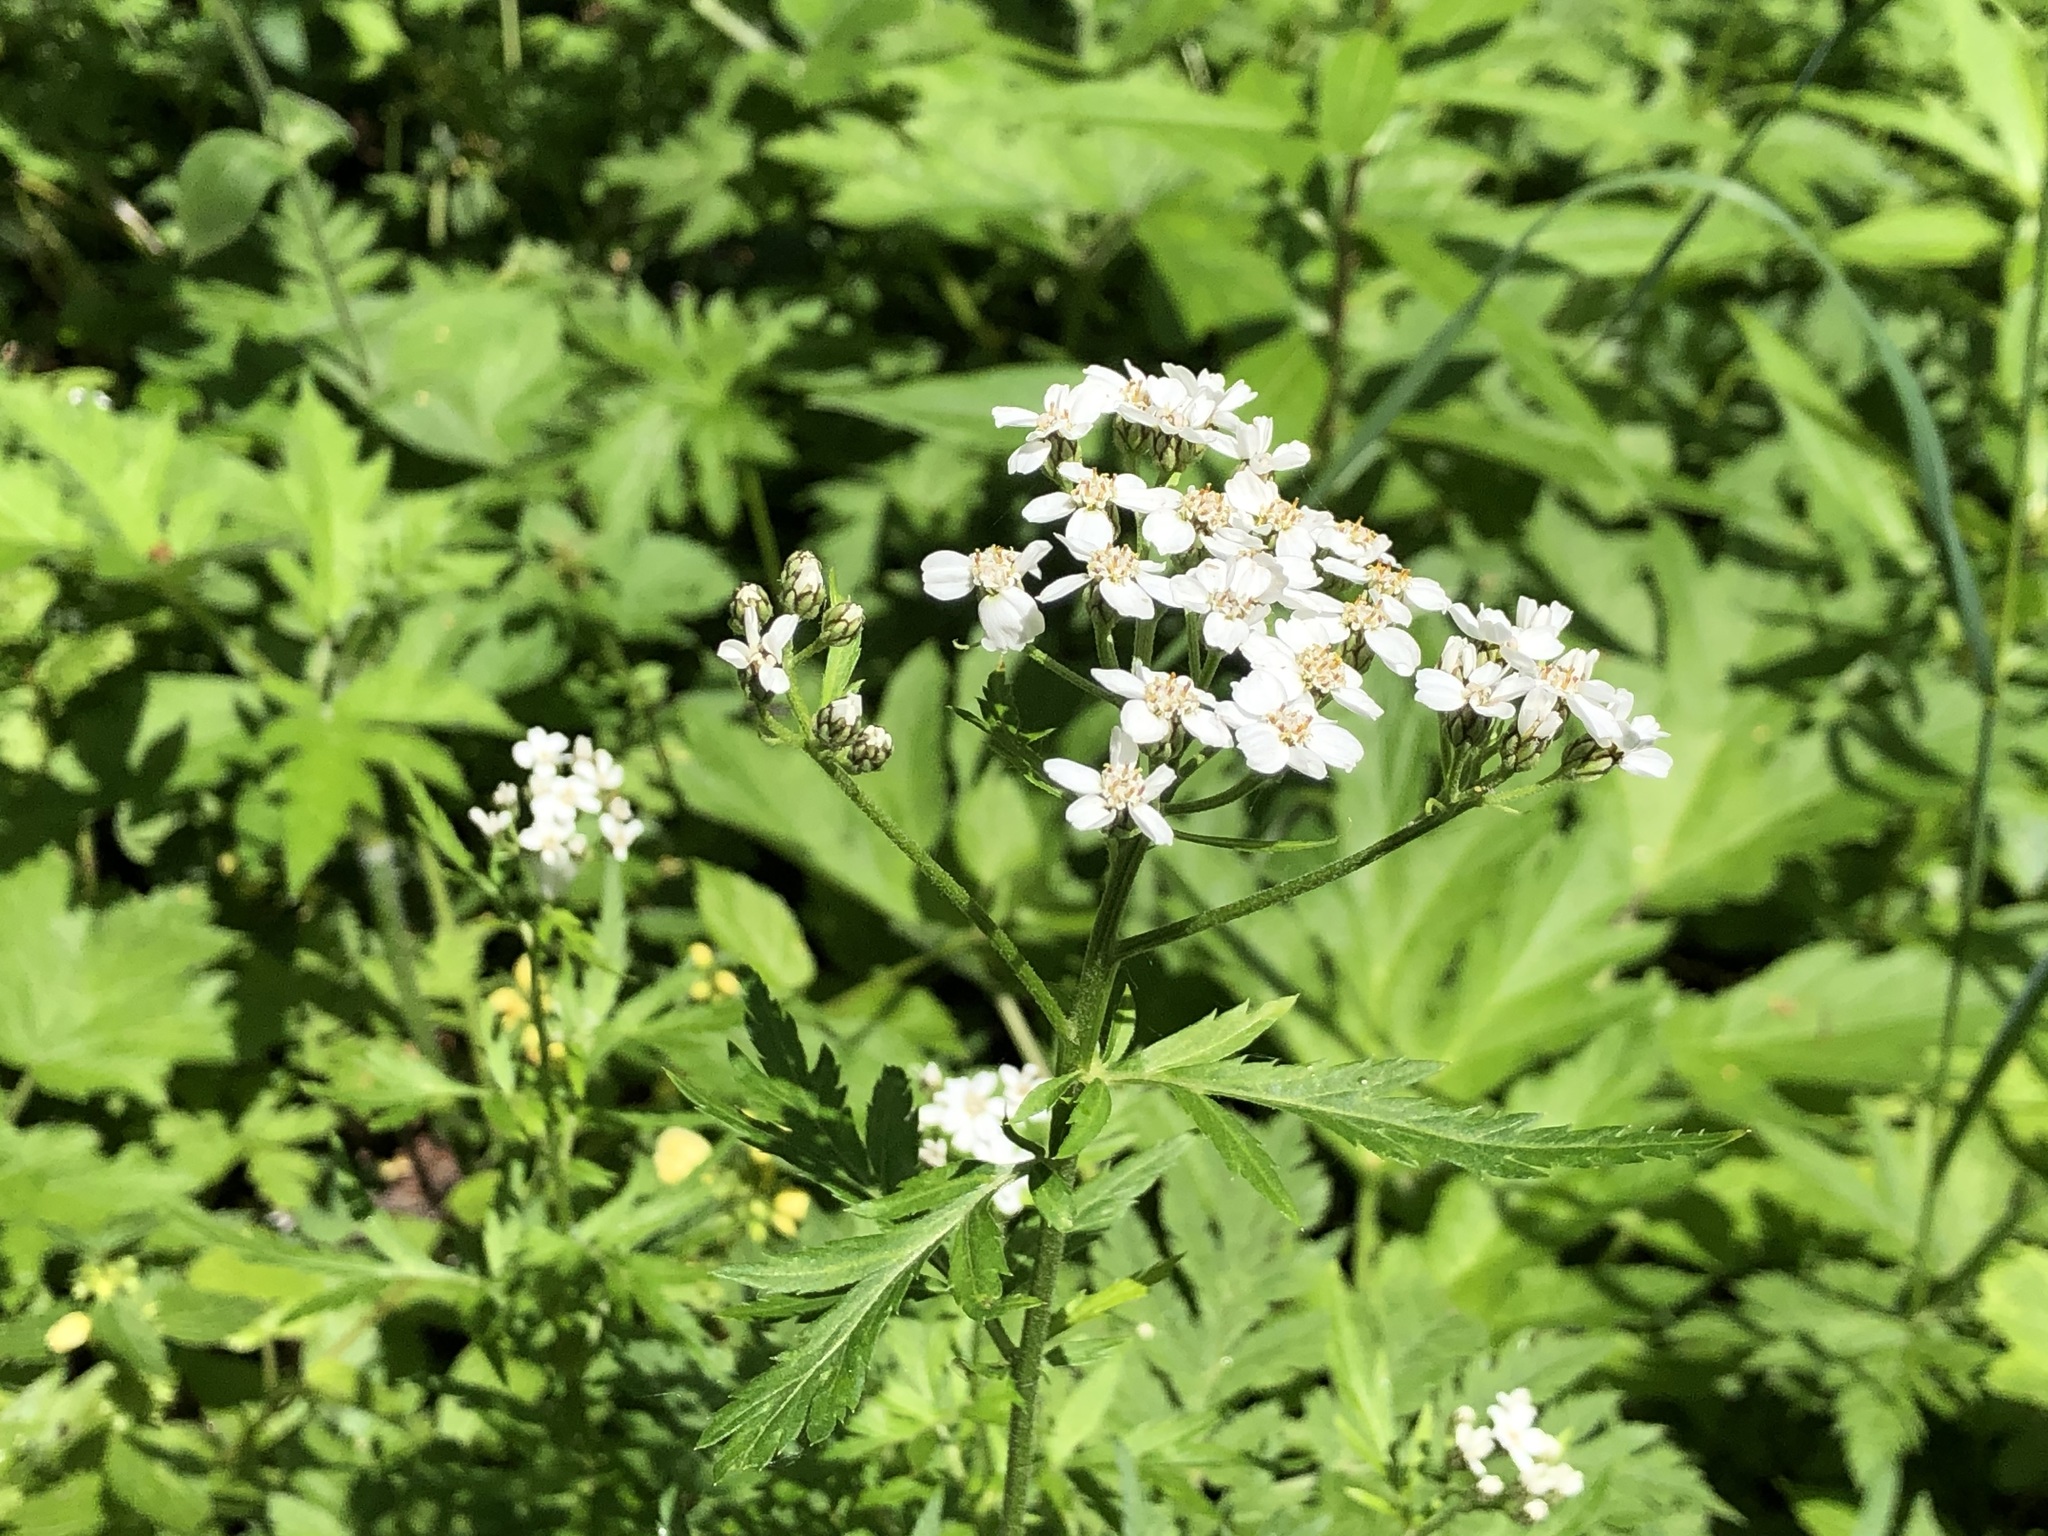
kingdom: Plantae
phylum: Tracheophyta
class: Magnoliopsida
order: Asterales
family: Asteraceae
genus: Achillea
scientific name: Achillea macrophylla
